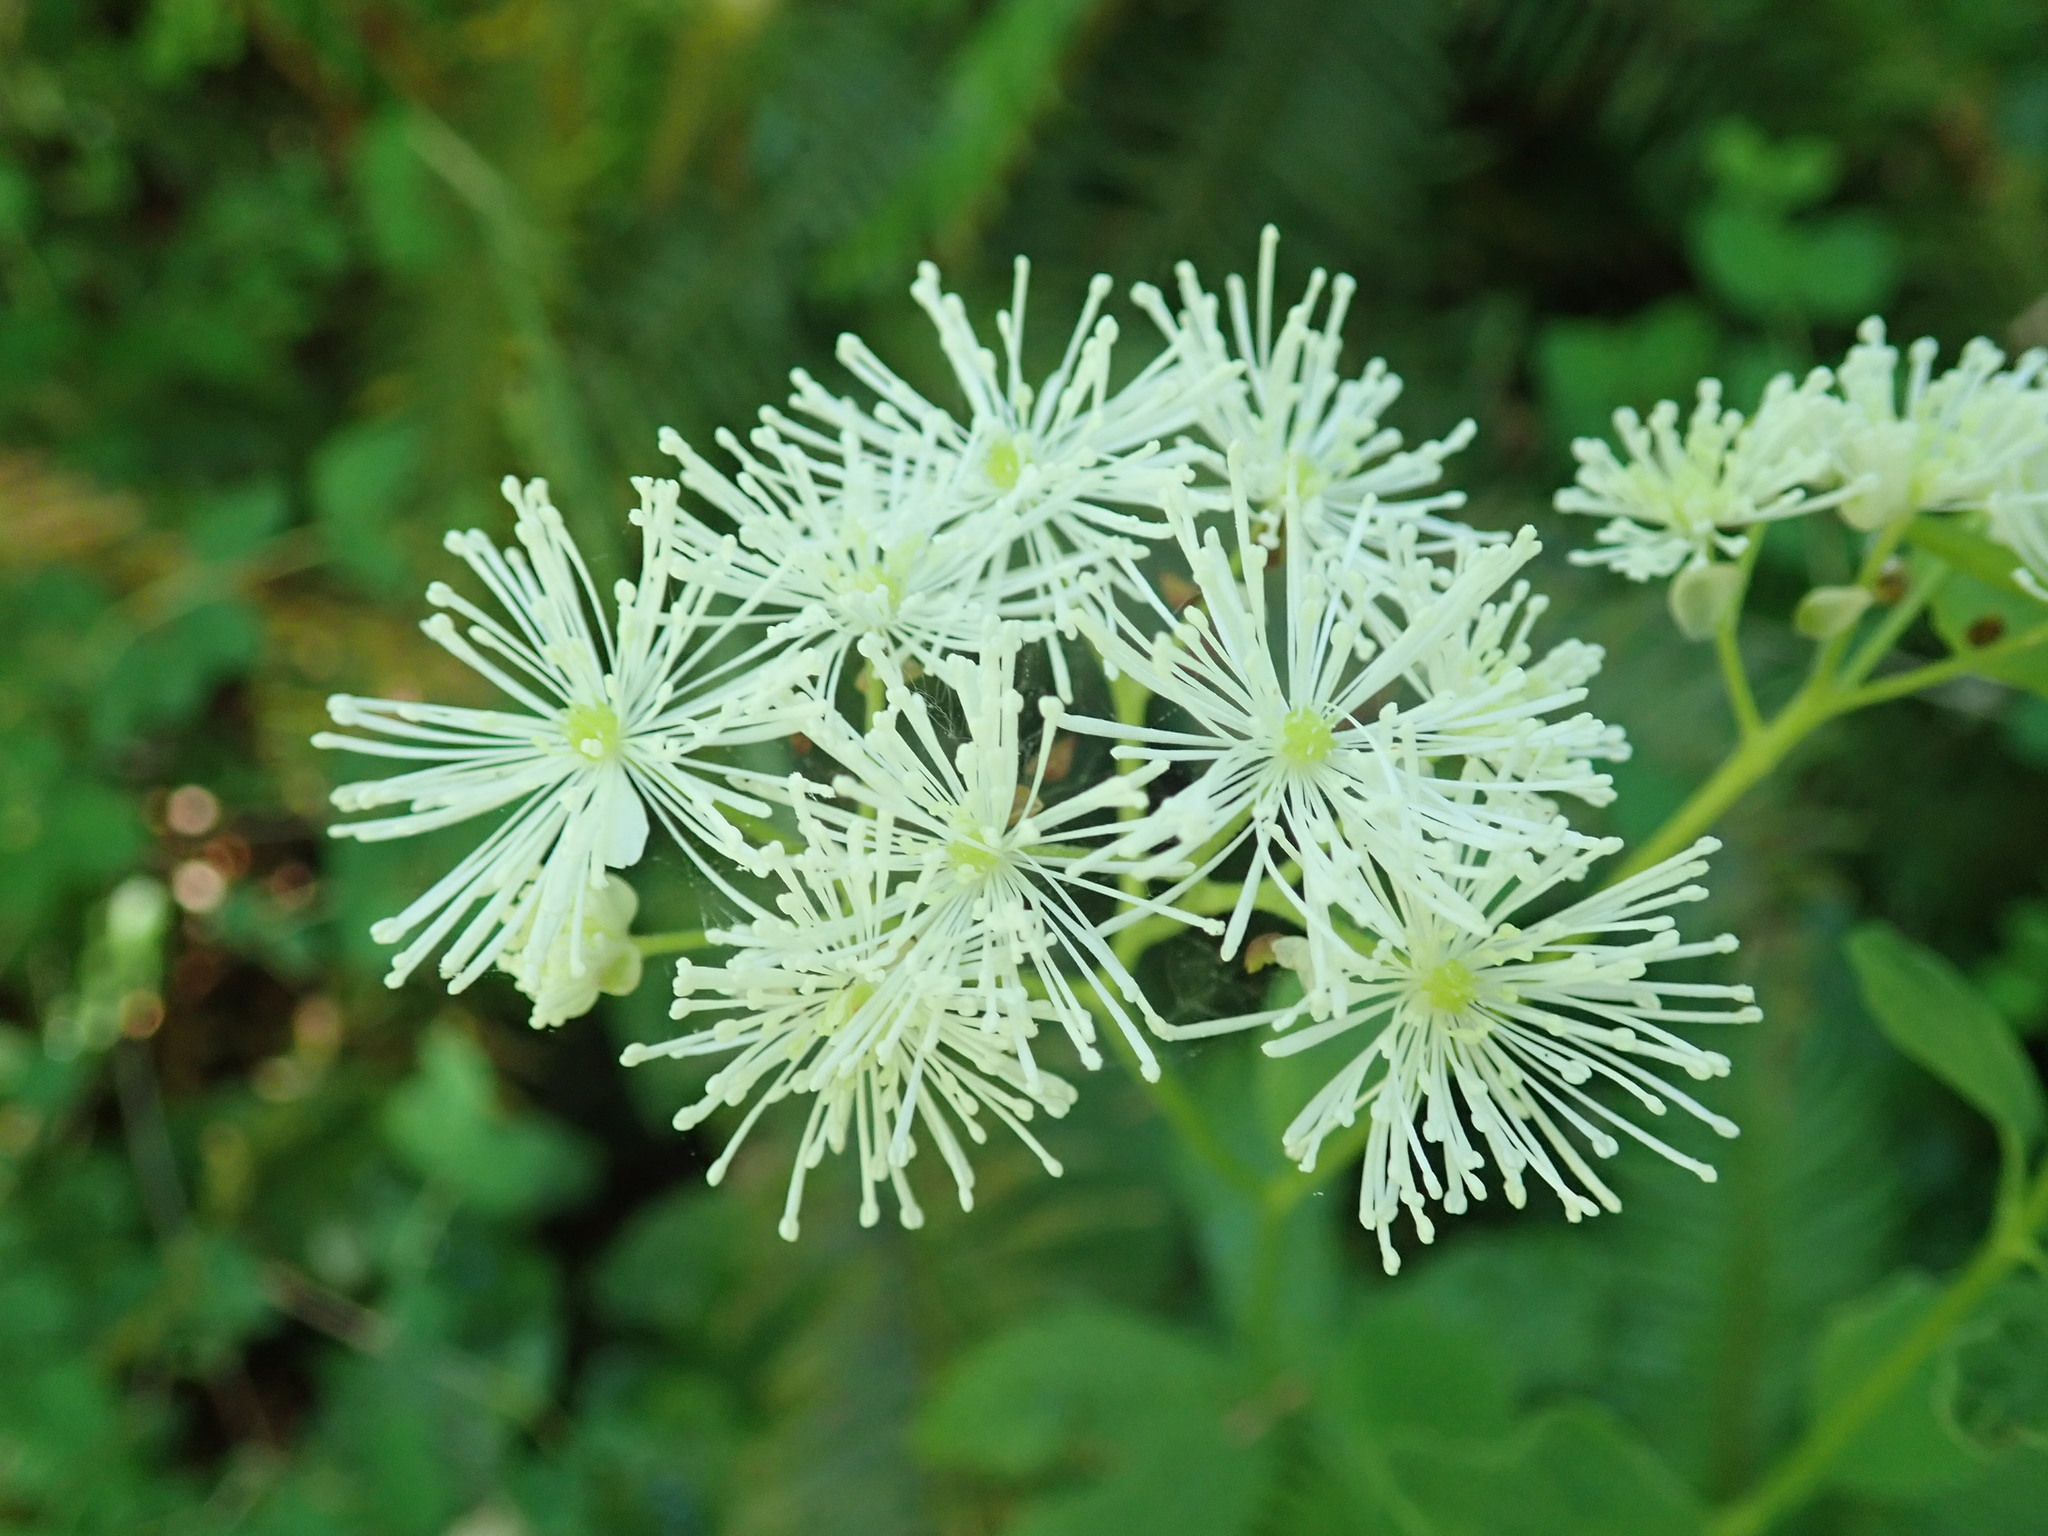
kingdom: Plantae
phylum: Tracheophyta
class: Magnoliopsida
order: Ranunculales
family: Ranunculaceae
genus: Trautvetteria
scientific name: Trautvetteria carolinensis
